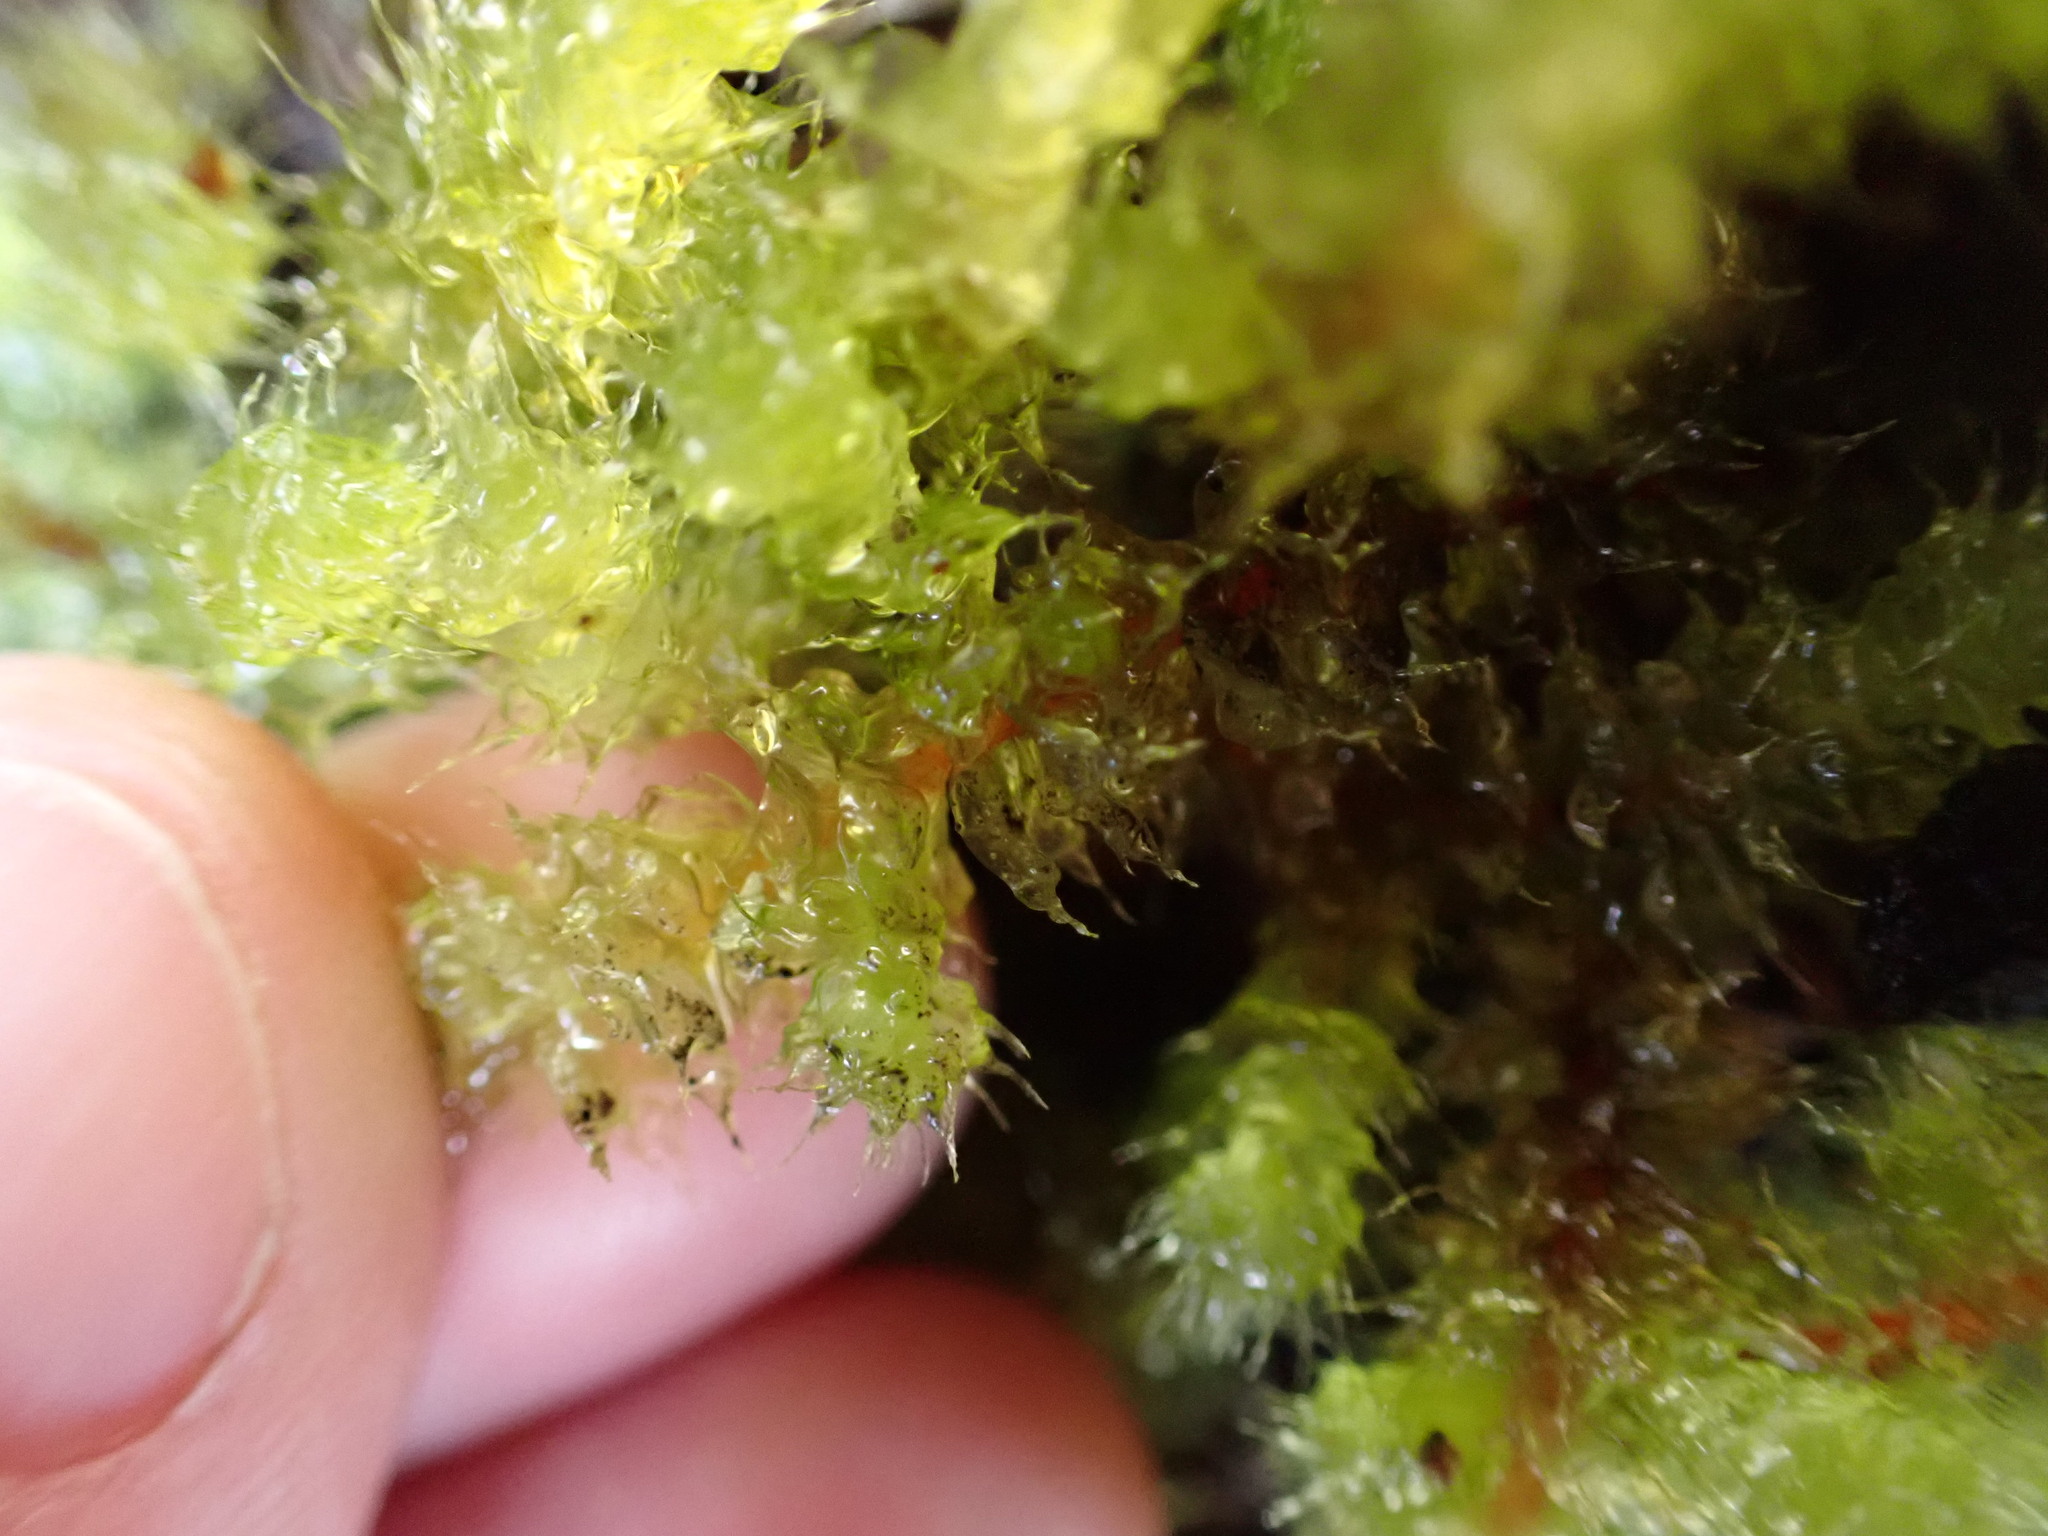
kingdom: Plantae
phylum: Bryophyta
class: Bryopsida
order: Ptychomniales
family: Ptychomniaceae
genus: Ptychomnion
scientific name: Ptychomnion aciculare
